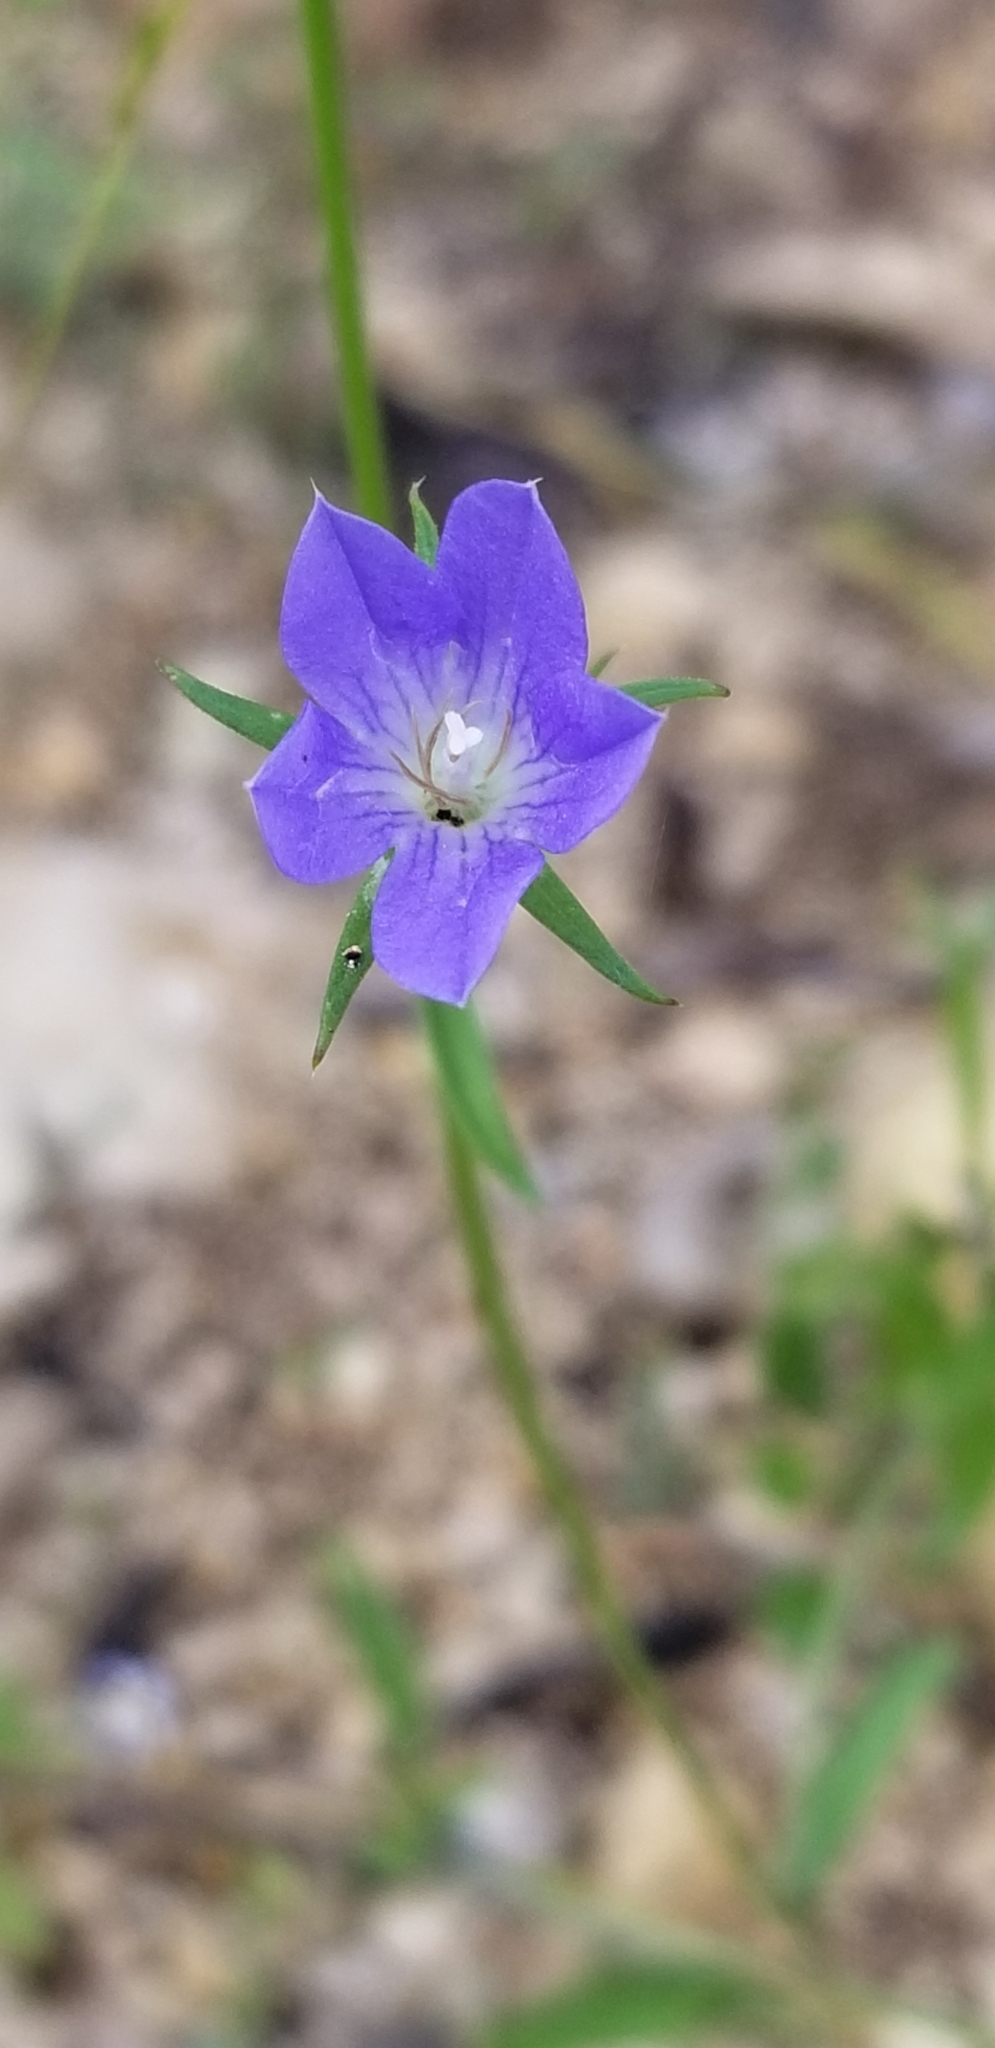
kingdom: Plantae
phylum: Tracheophyta
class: Magnoliopsida
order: Asterales
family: Campanulaceae
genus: Triodanis
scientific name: Triodanis coloradoensis
